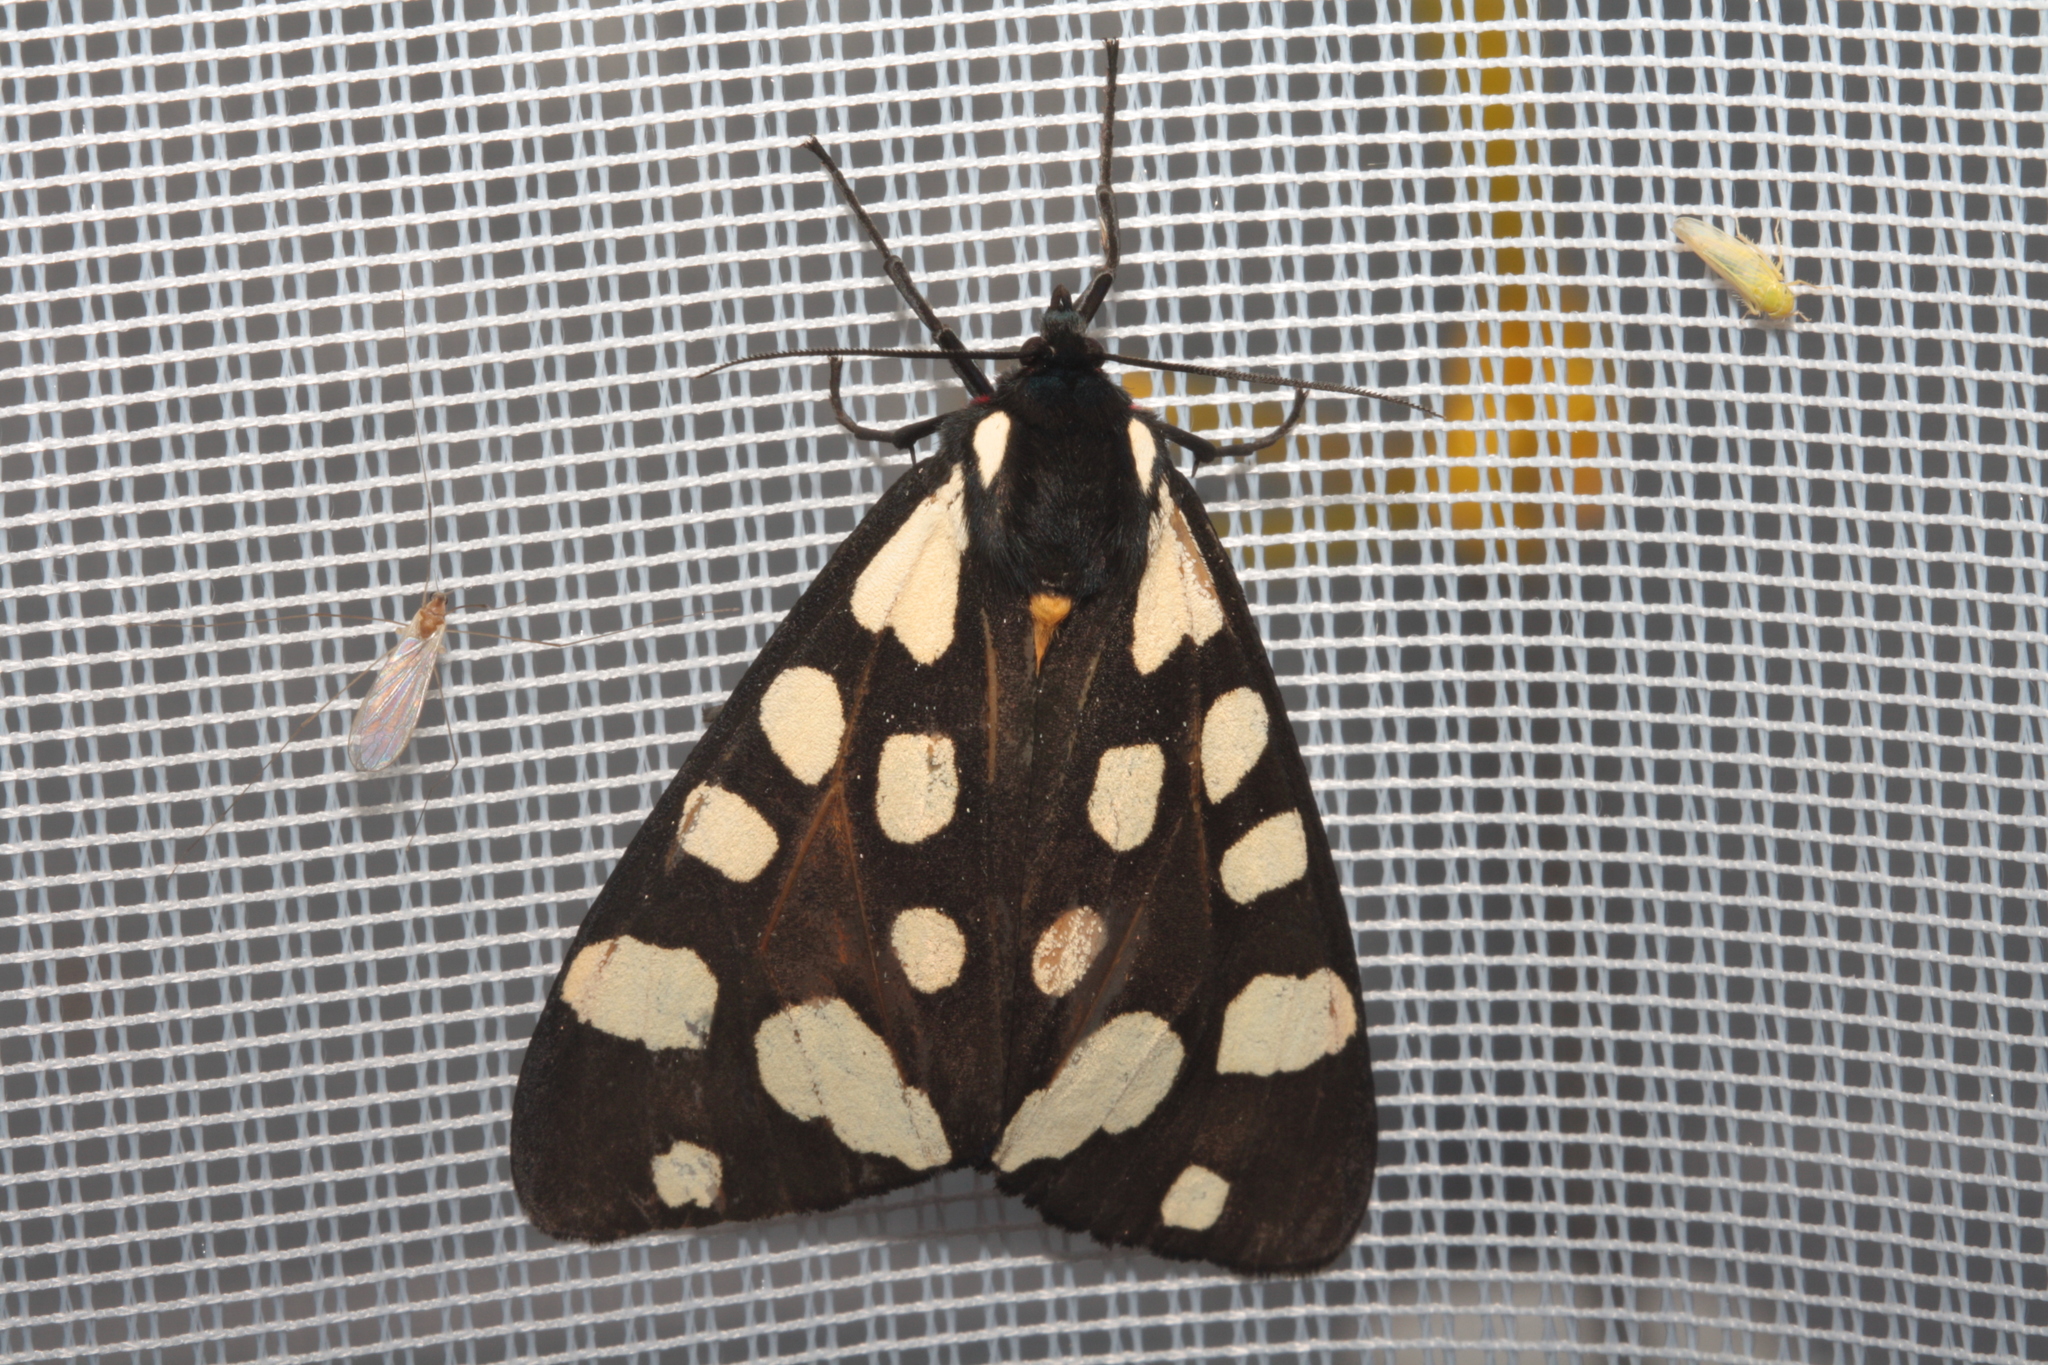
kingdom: Animalia
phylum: Arthropoda
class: Insecta
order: Lepidoptera
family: Erebidae
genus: Epicallia
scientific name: Epicallia villica
